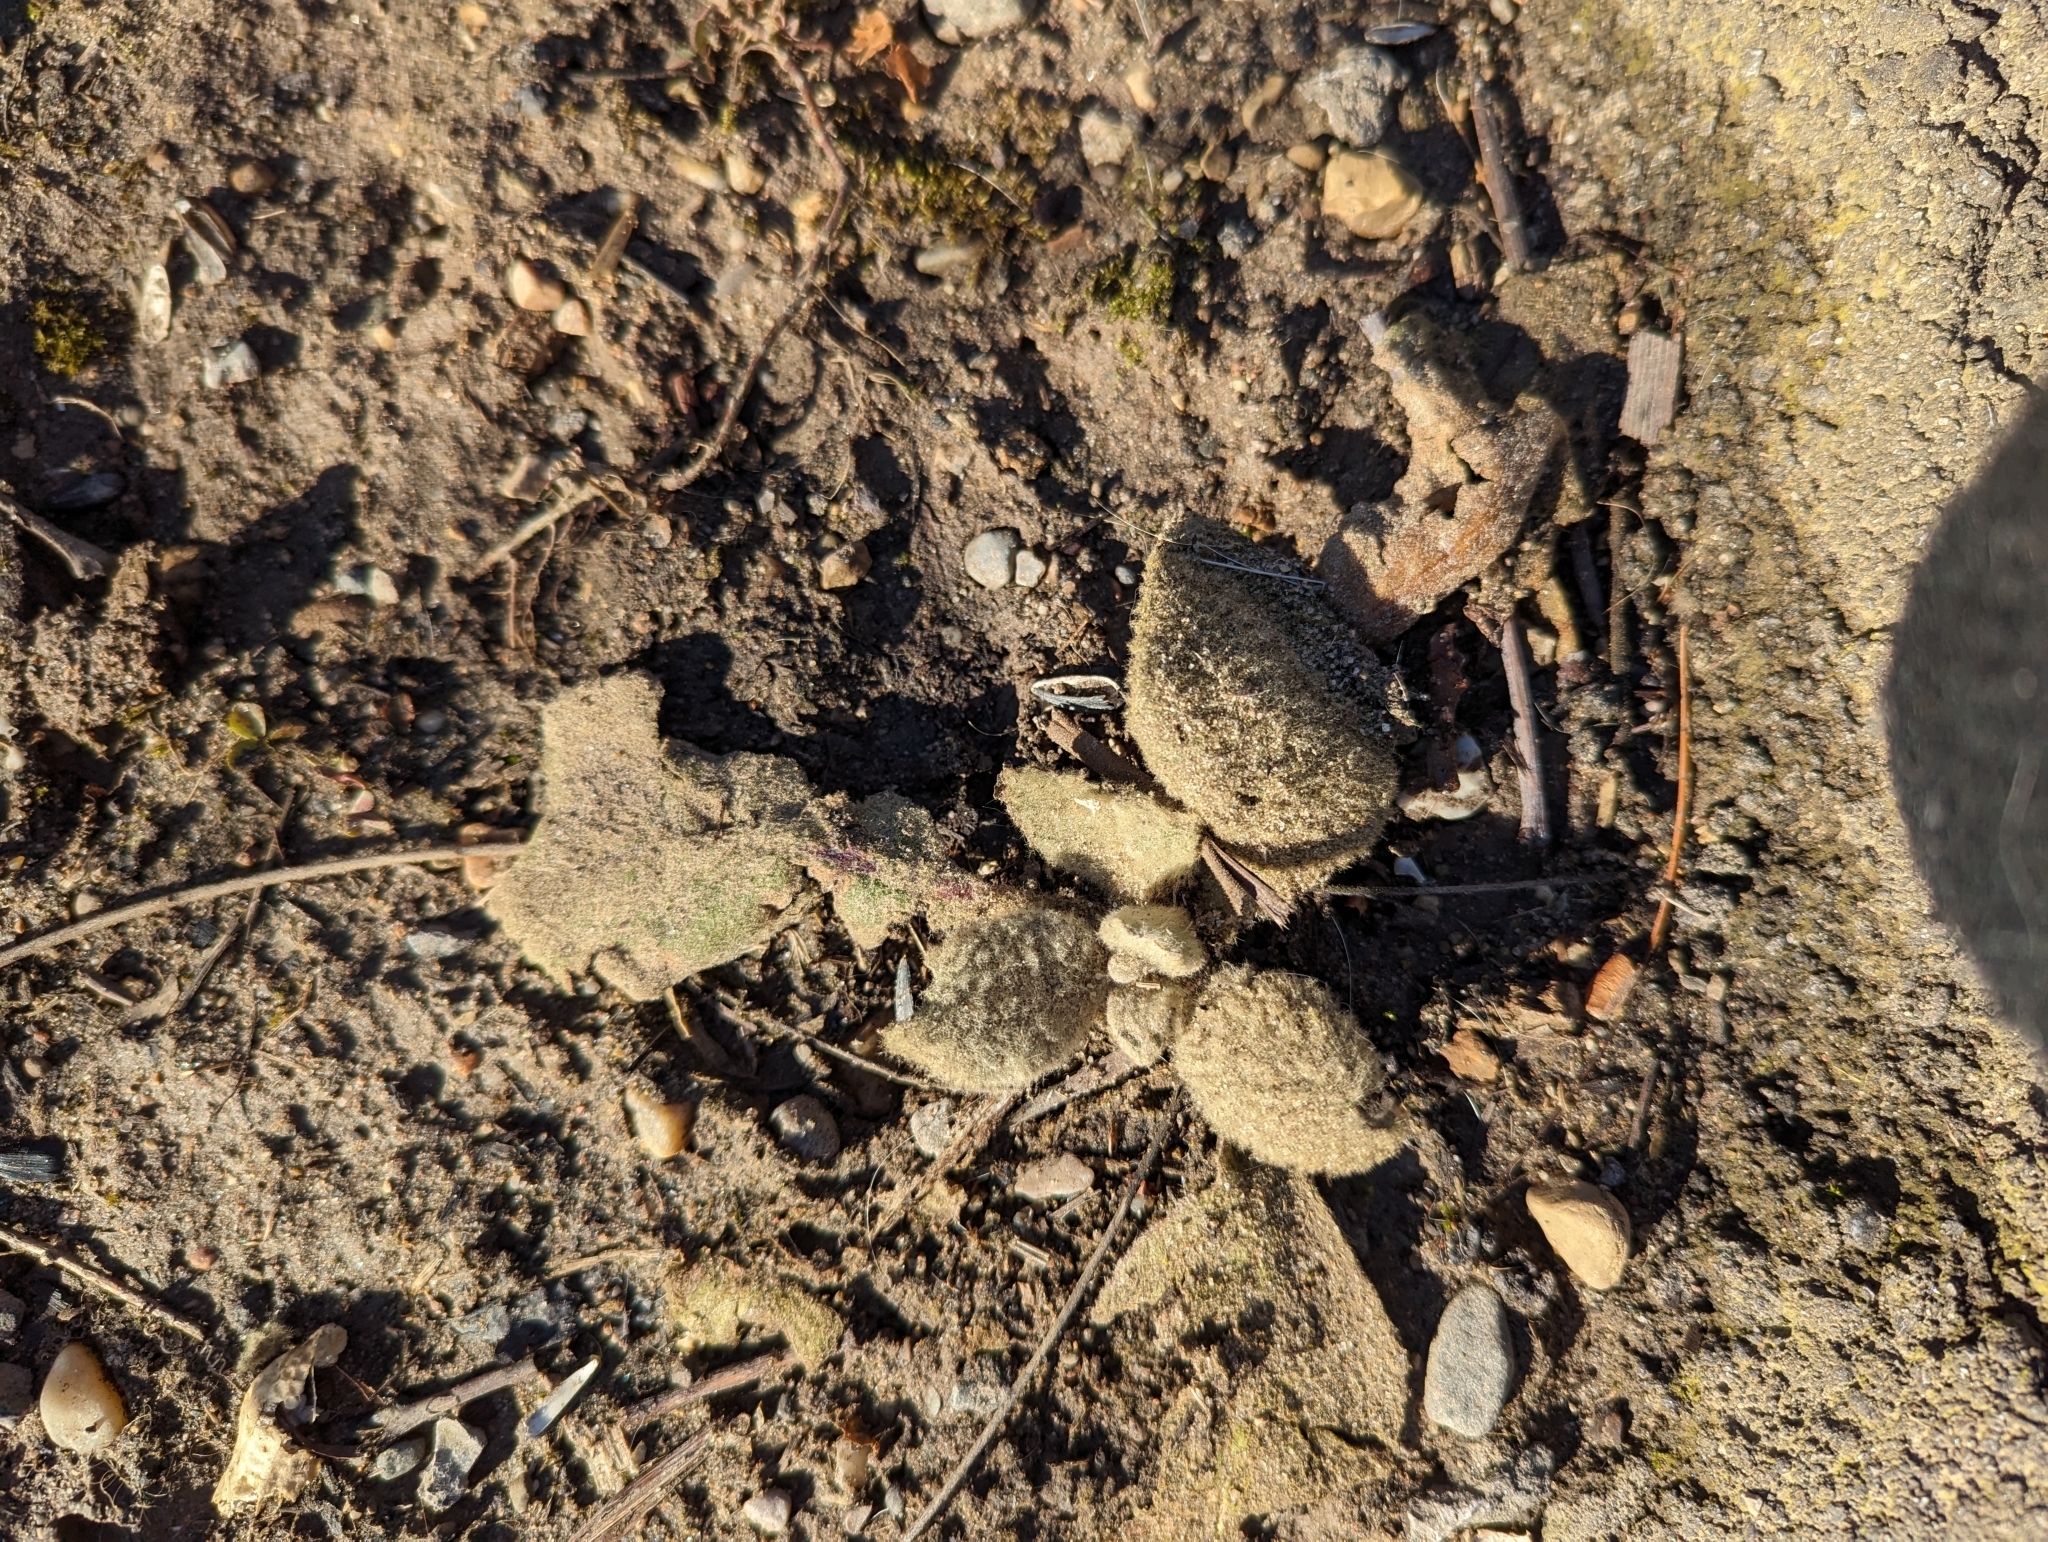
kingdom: Plantae
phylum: Tracheophyta
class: Magnoliopsida
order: Lamiales
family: Scrophulariaceae
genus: Verbascum
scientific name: Verbascum thapsus
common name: Common mullein
